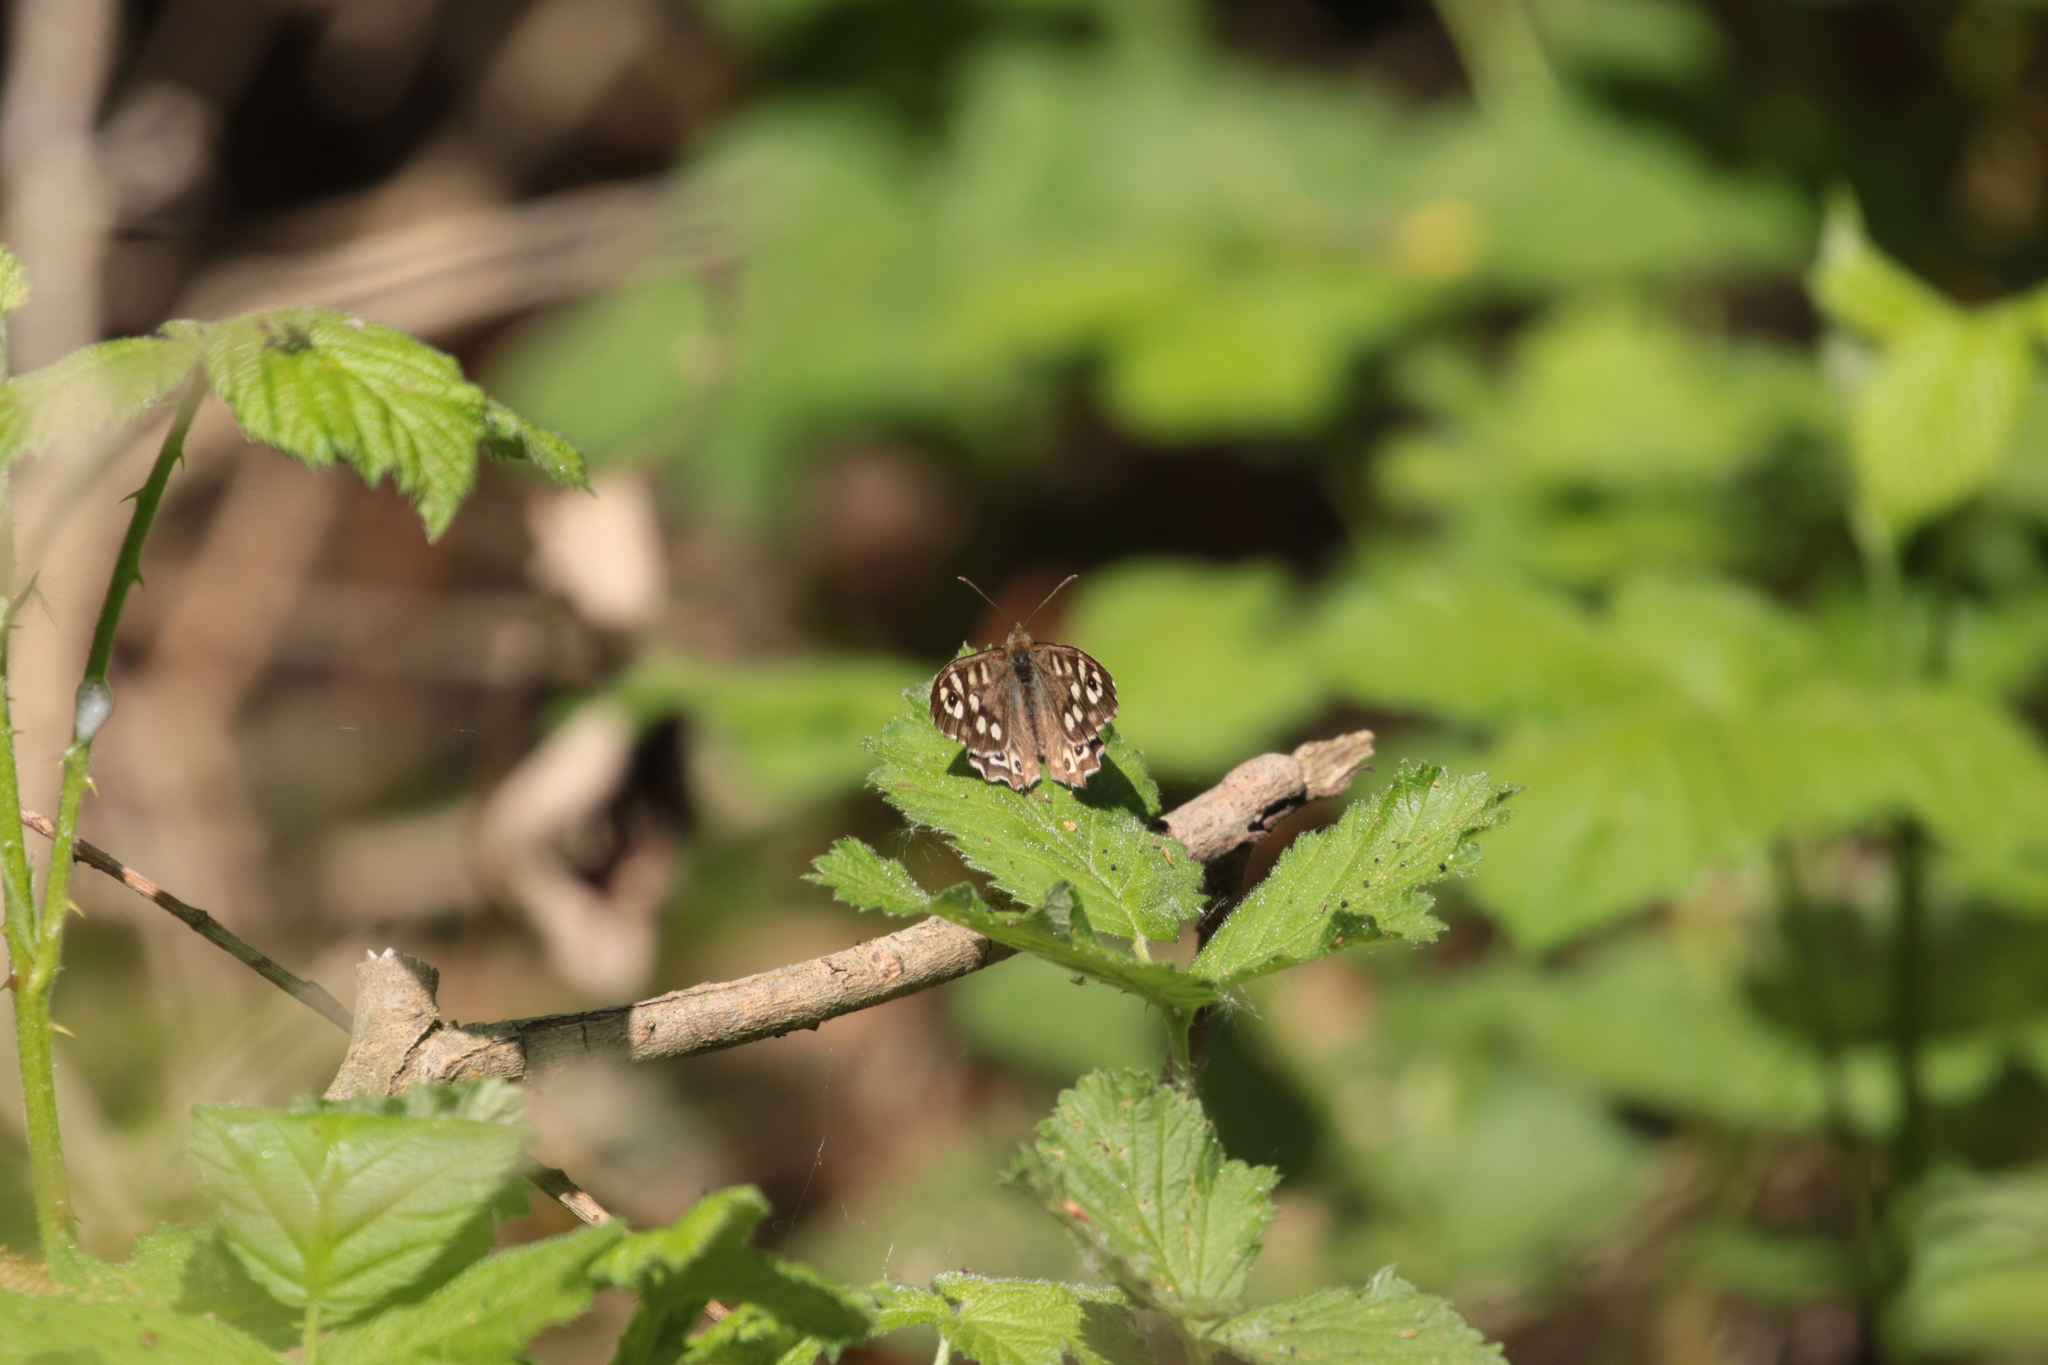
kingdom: Animalia
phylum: Arthropoda
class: Insecta
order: Lepidoptera
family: Nymphalidae
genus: Pararge
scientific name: Pararge aegeria
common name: Speckled wood
